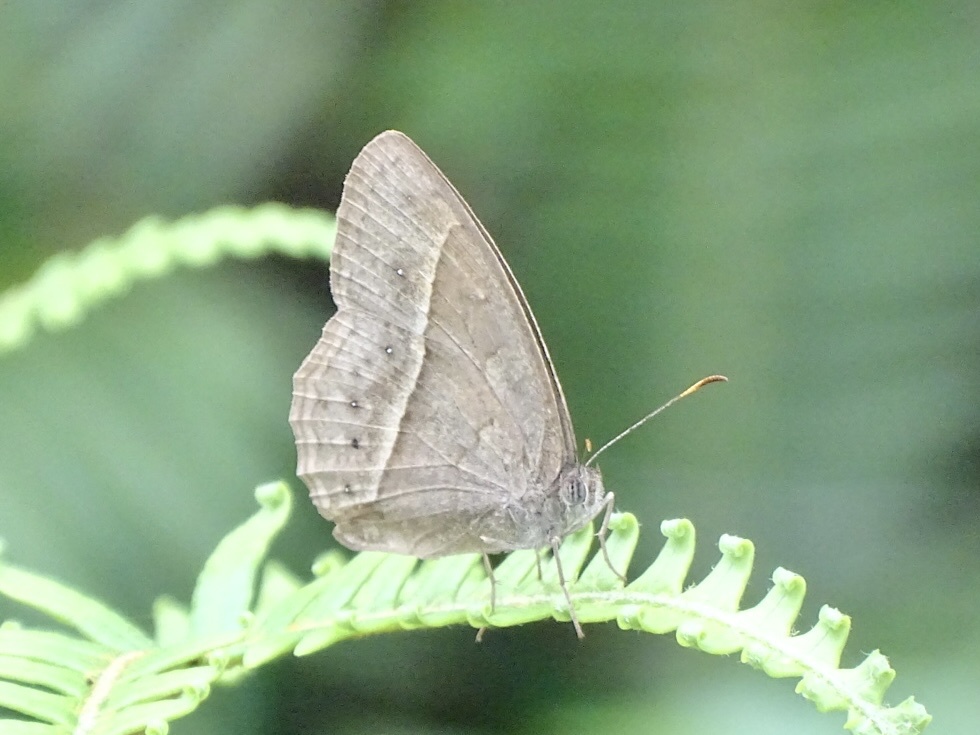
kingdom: Animalia
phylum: Arthropoda
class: Insecta
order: Lepidoptera
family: Nymphalidae
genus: Mycalesis
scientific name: Mycalesis mineus
